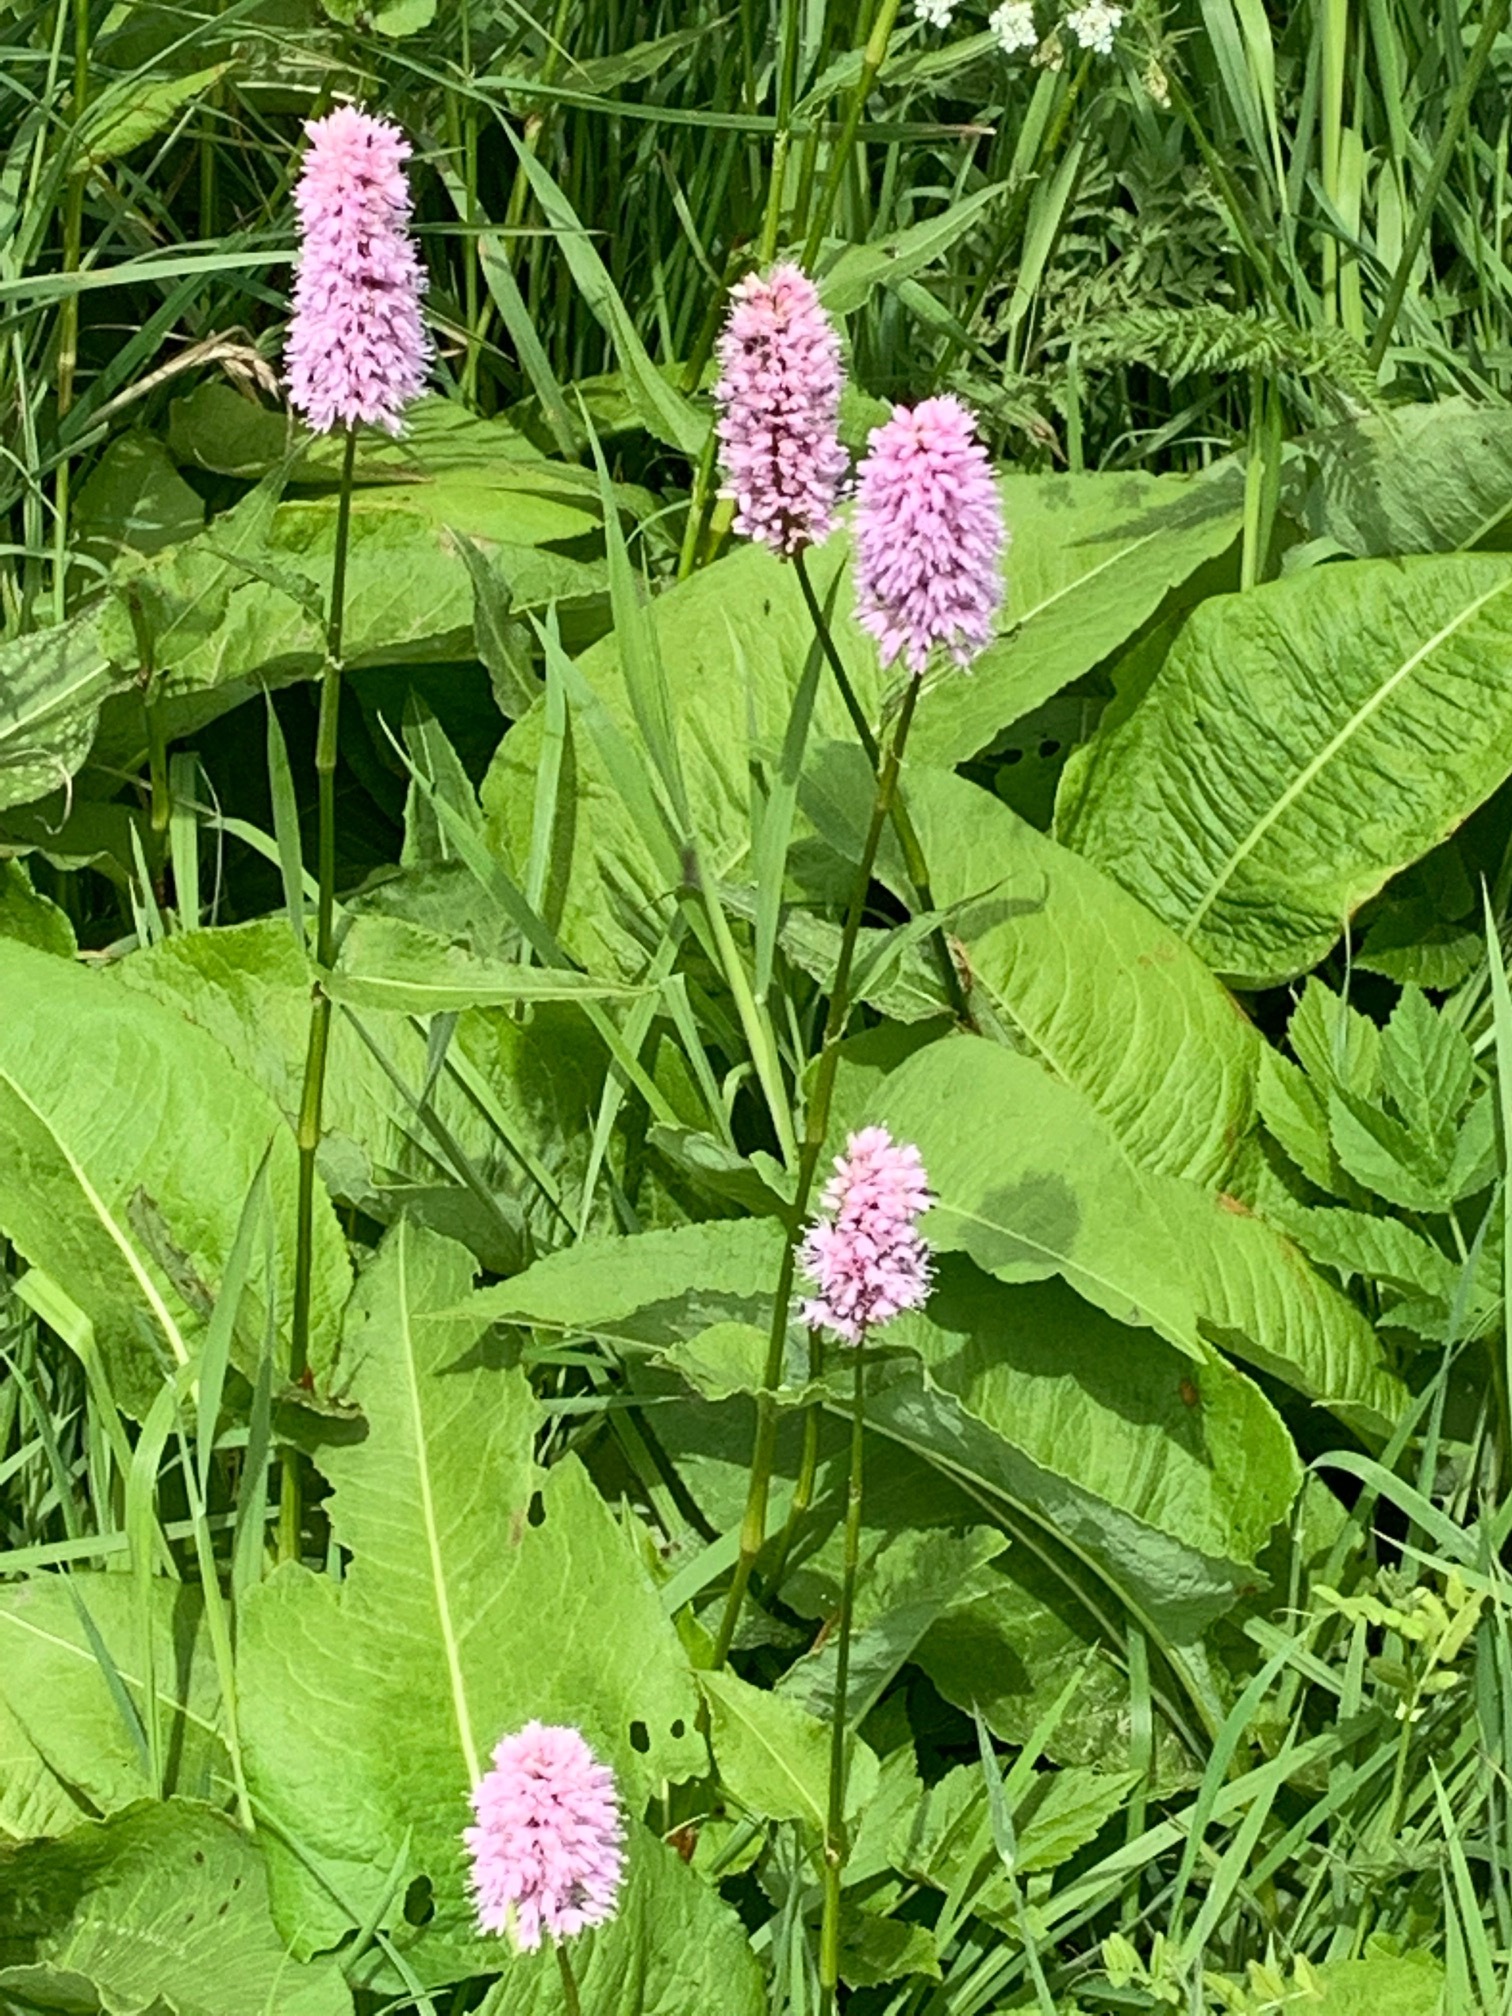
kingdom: Plantae
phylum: Tracheophyta
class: Magnoliopsida
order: Caryophyllales
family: Polygonaceae
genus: Bistorta
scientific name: Bistorta officinalis
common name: Common bistort
